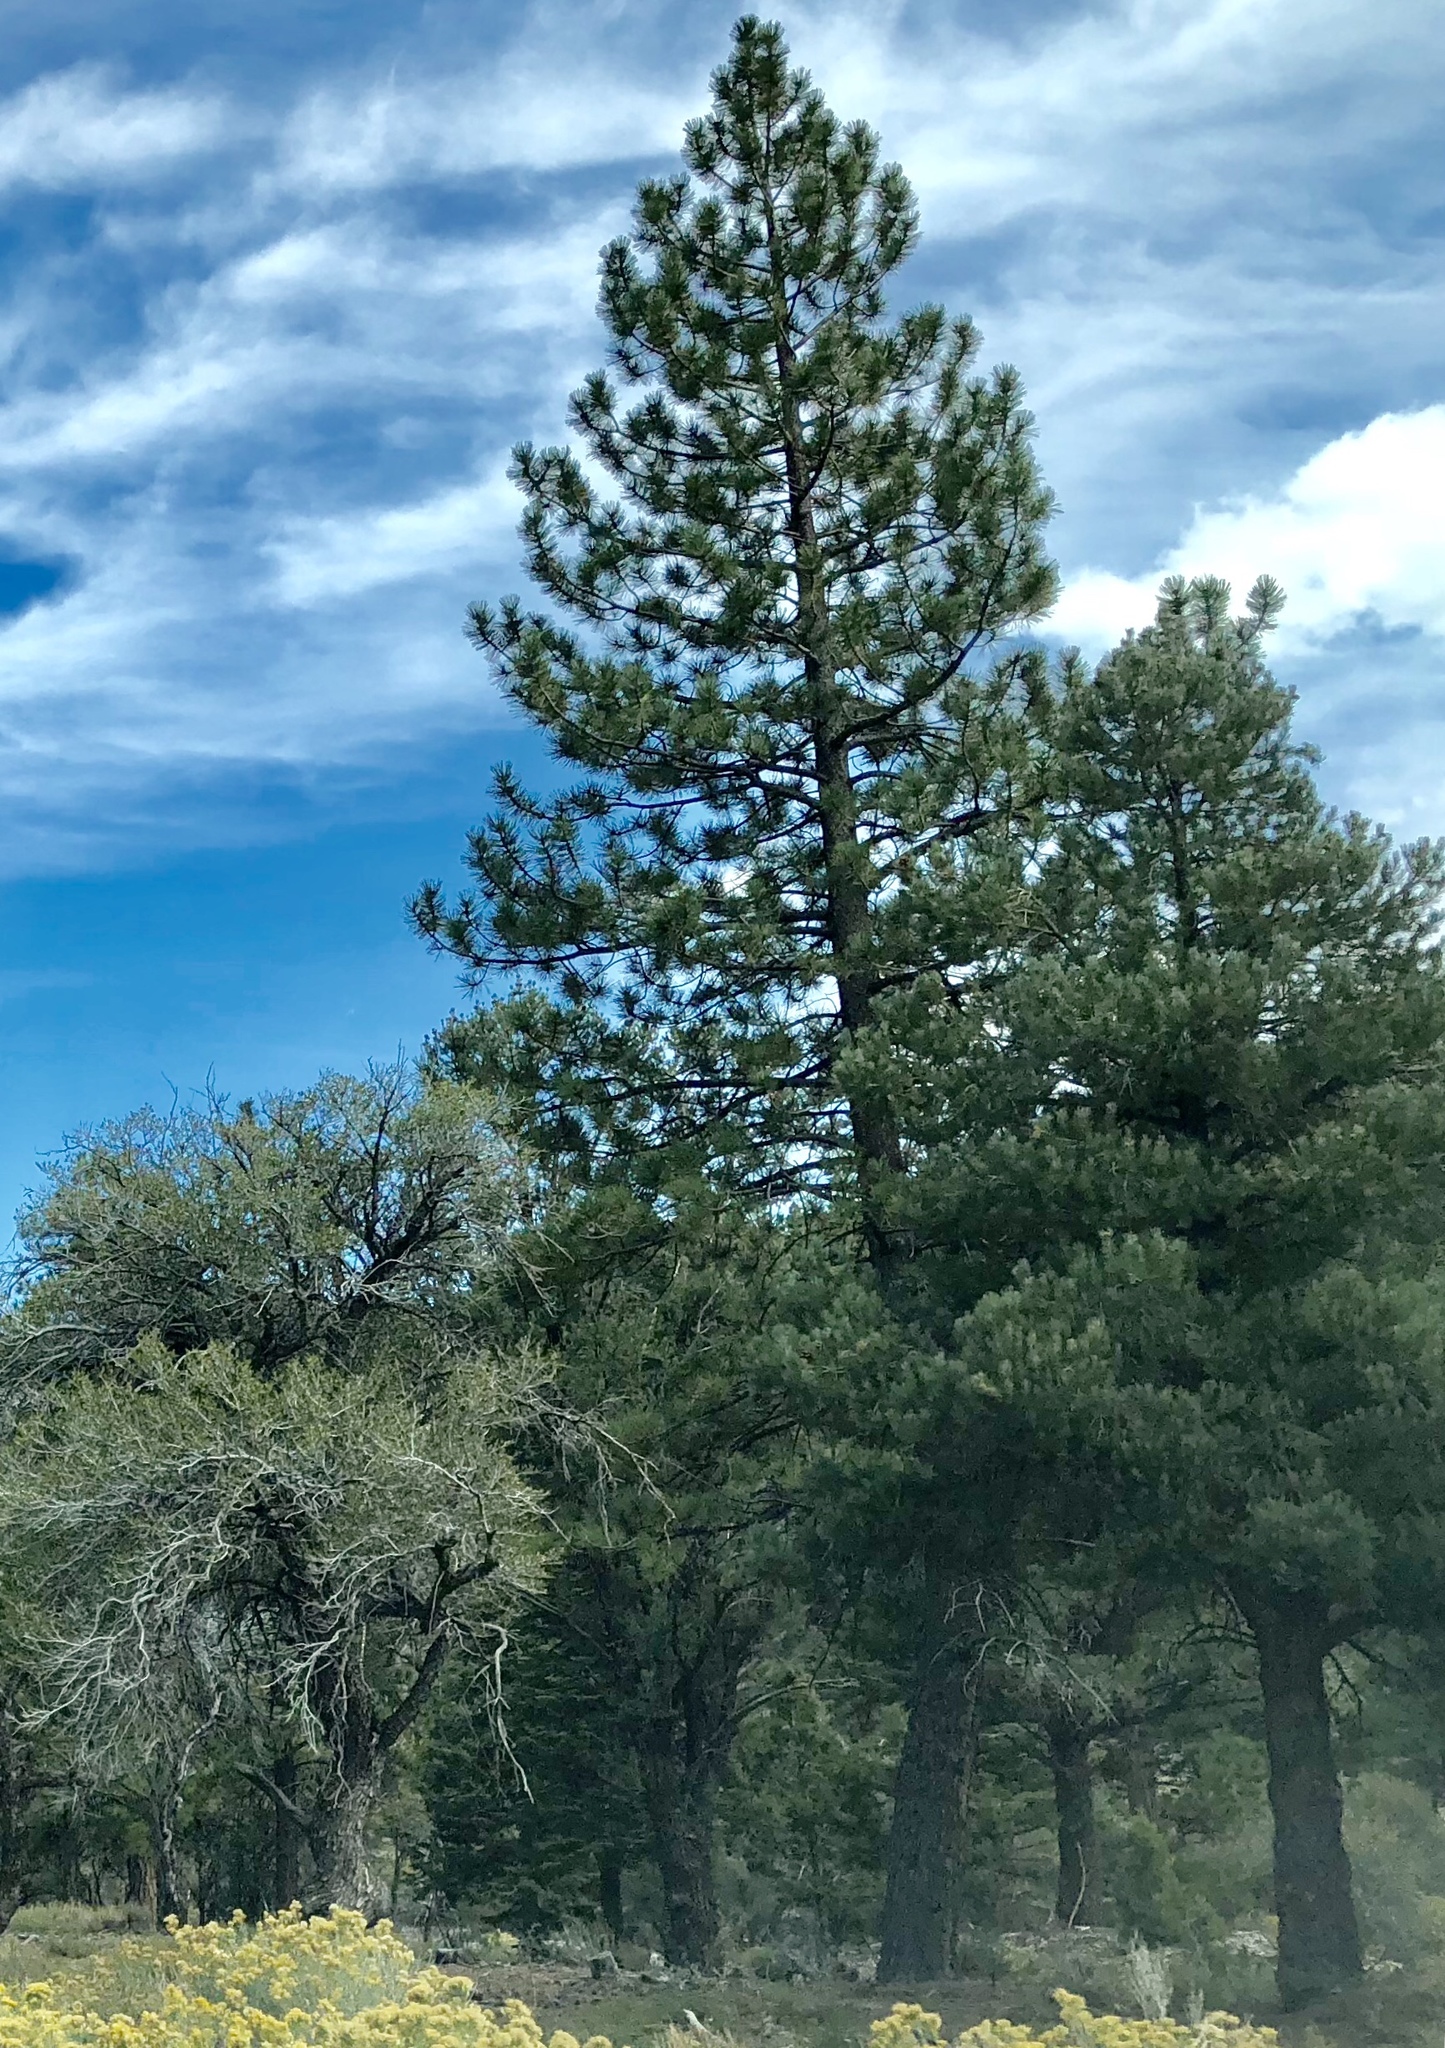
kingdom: Plantae
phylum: Tracheophyta
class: Pinopsida
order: Pinales
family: Pinaceae
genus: Pinus
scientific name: Pinus ponderosa
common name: Western yellow-pine
